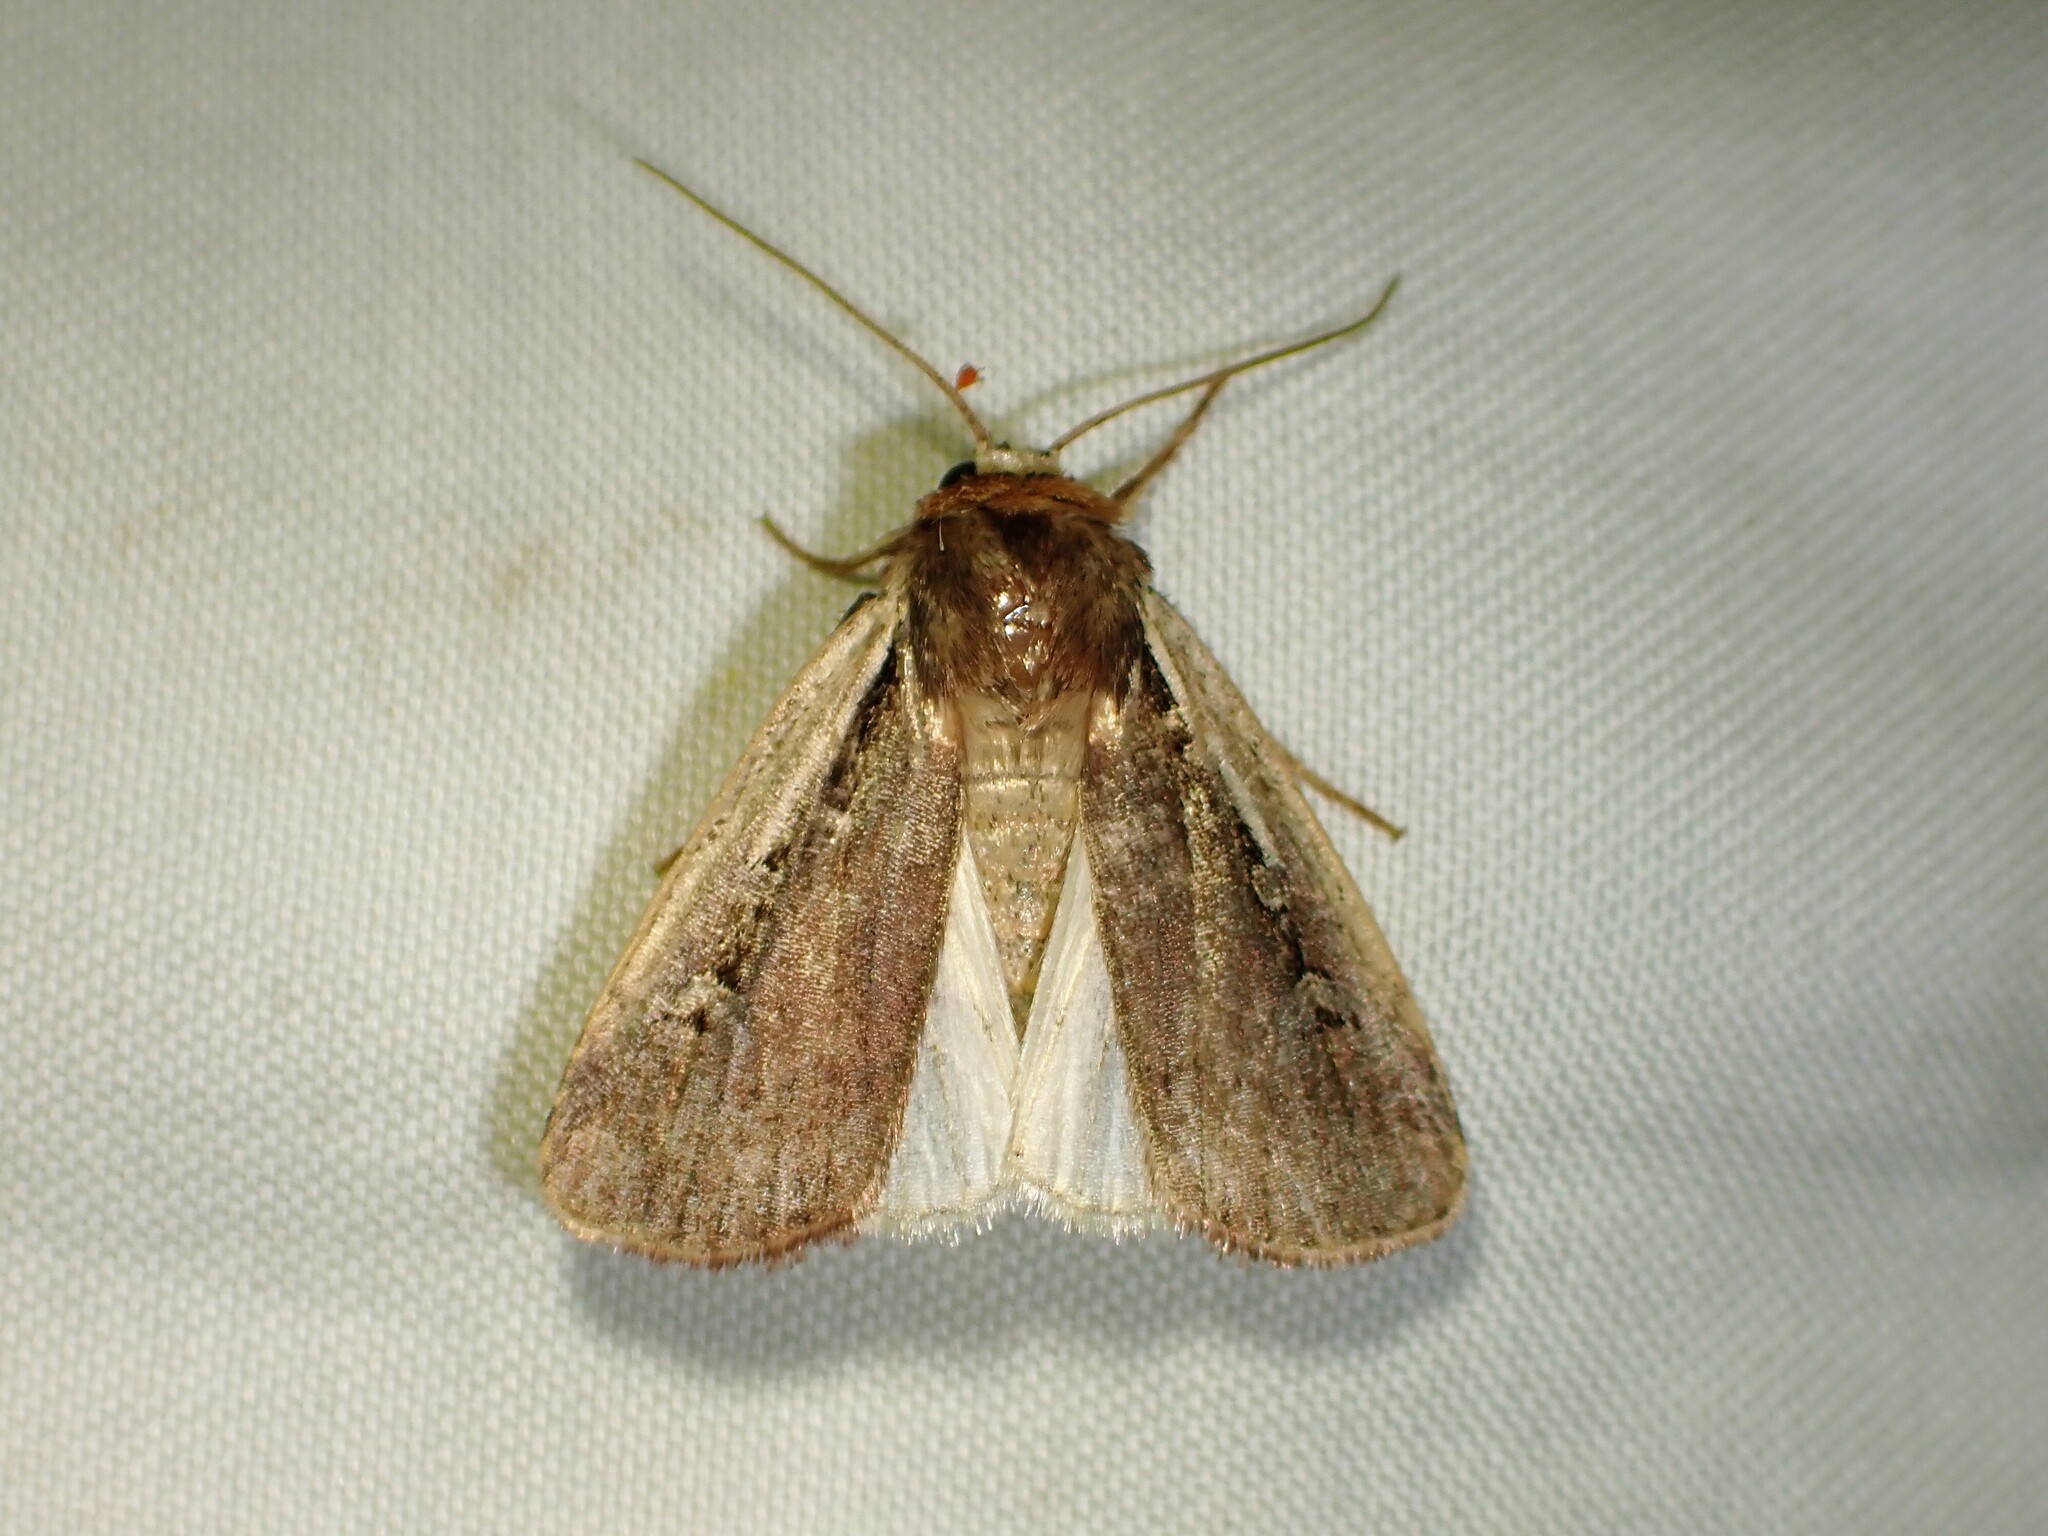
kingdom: Animalia
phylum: Arthropoda
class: Insecta
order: Lepidoptera
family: Noctuidae
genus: Ochropleura
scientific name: Ochropleura implecta
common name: Flame-shouldered dart
